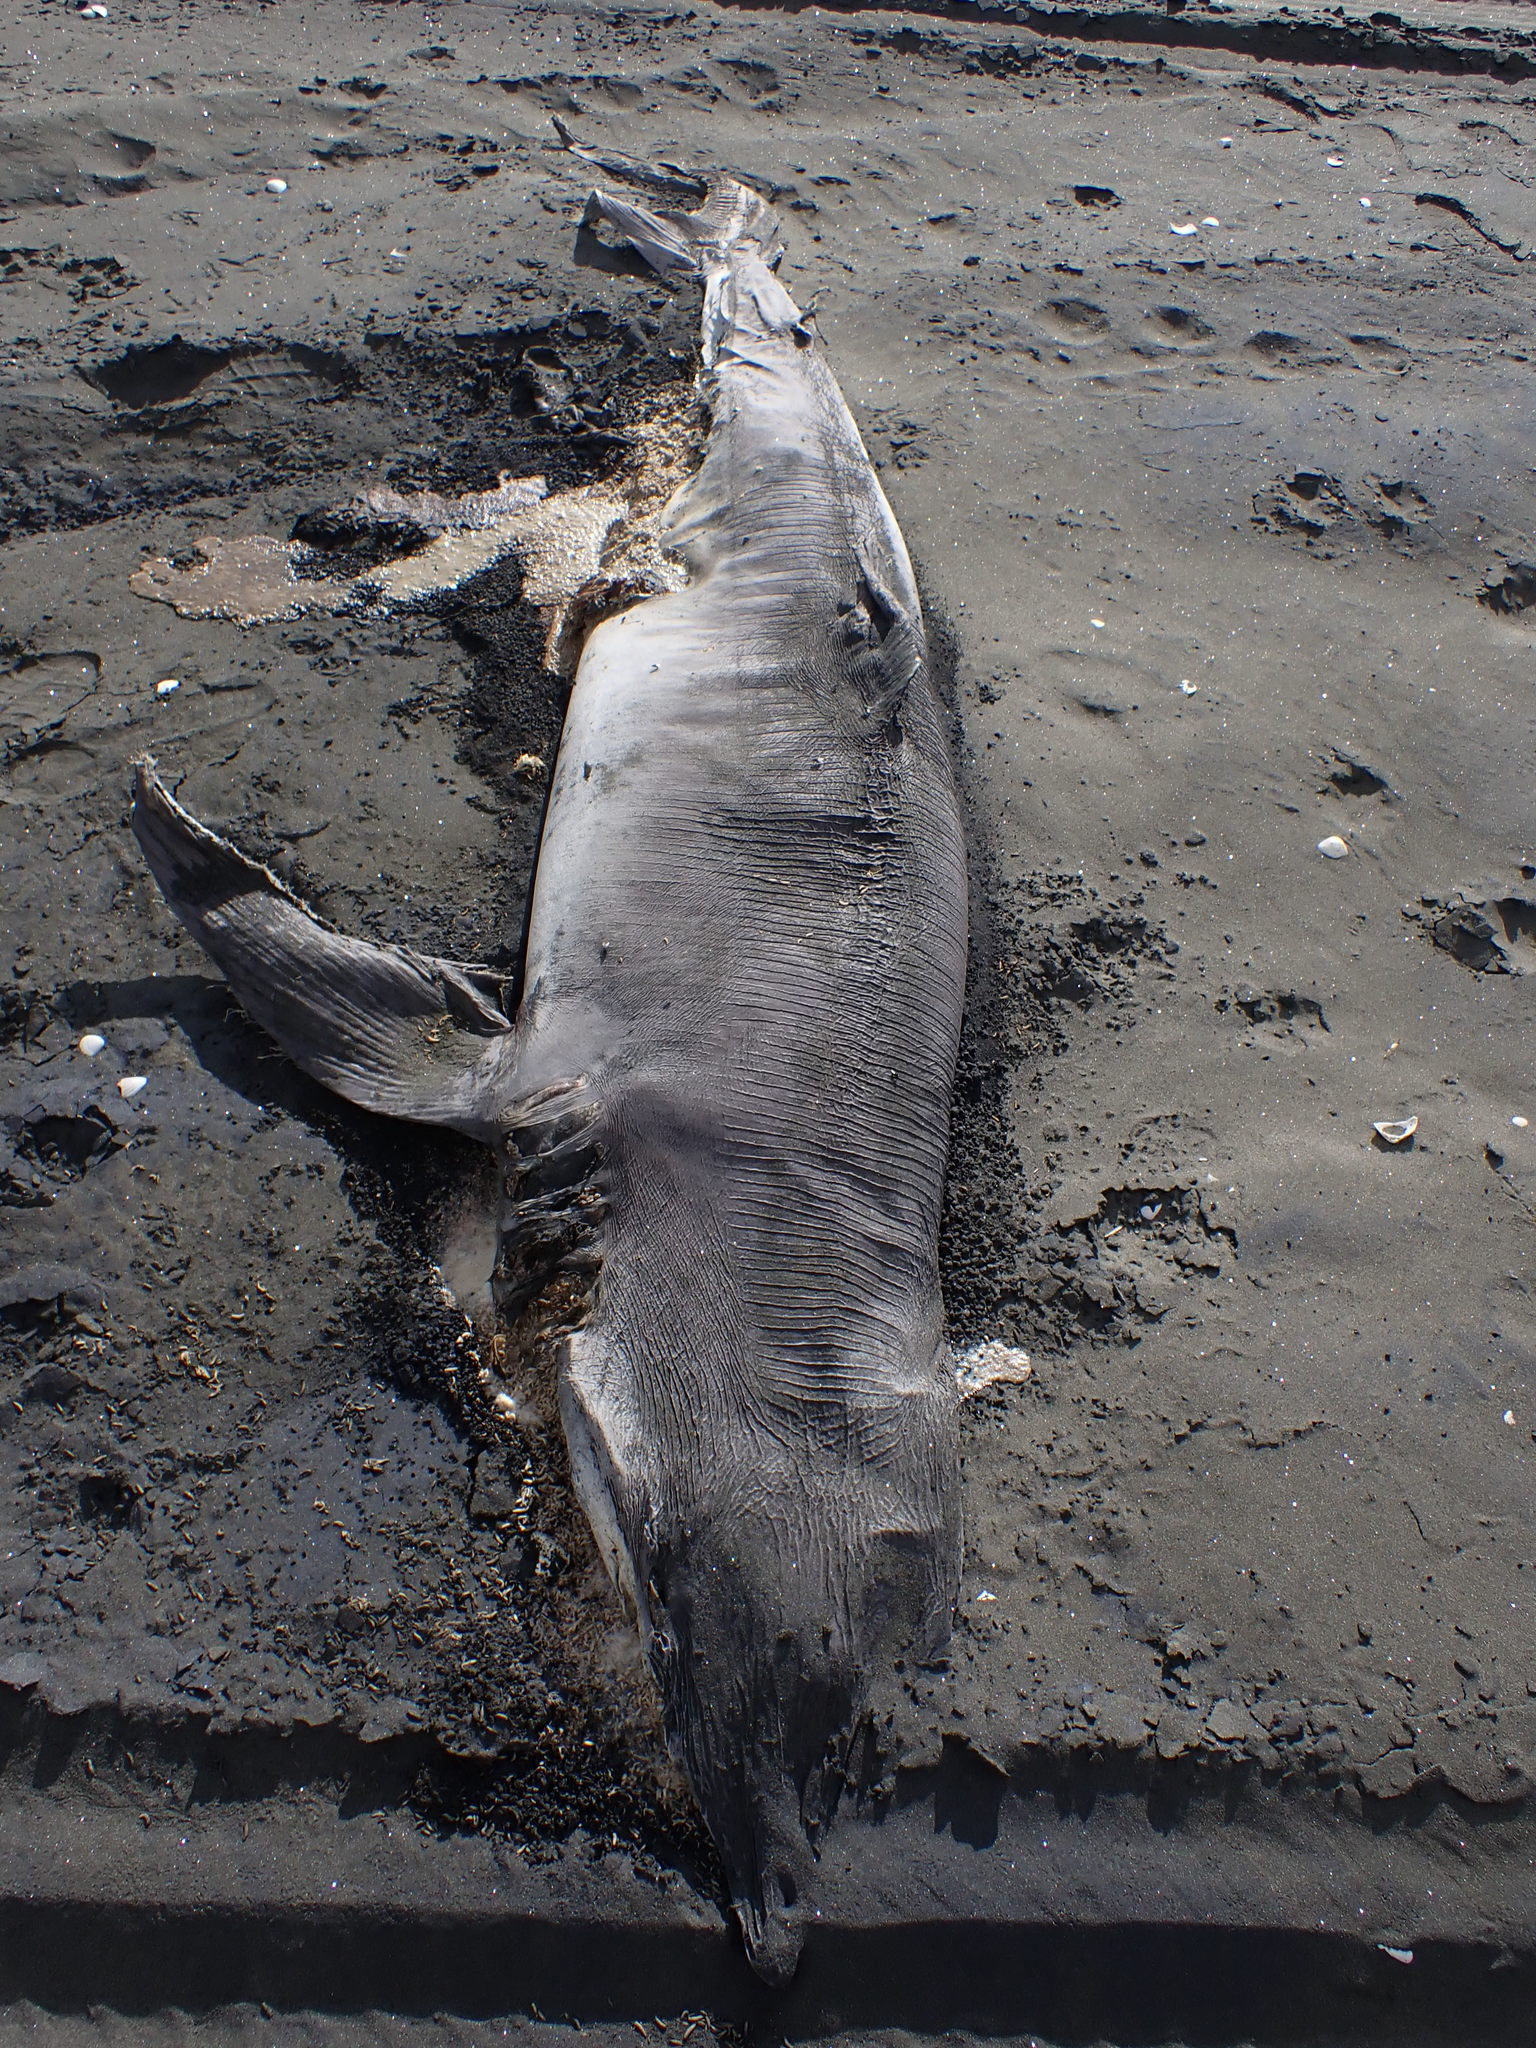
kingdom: Animalia
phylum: Chordata
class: Elasmobranchii
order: Carcharhiniformes
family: Carcharhinidae
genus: Prionace
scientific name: Prionace glauca
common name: Blue shark
